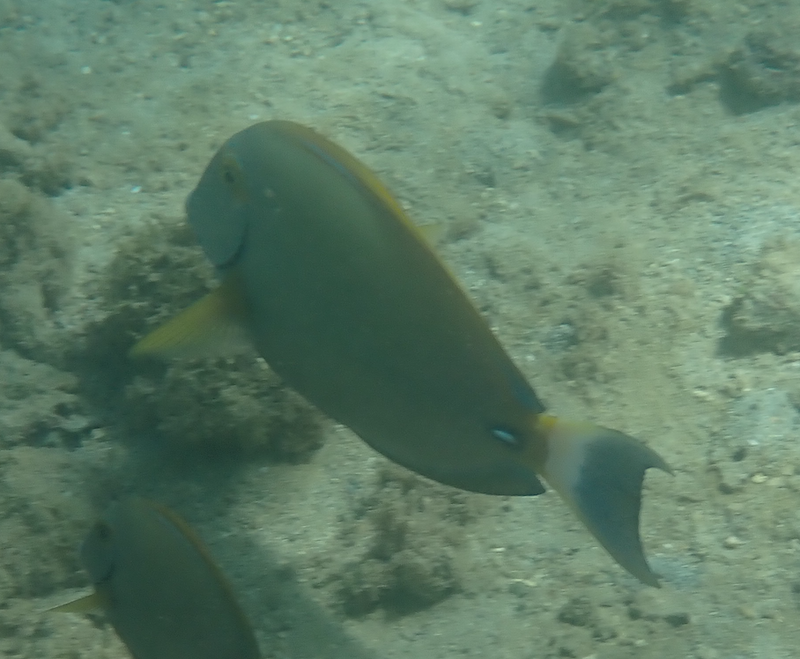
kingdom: Animalia
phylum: Chordata
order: Perciformes
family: Acanthuridae
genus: Acanthurus
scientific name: Acanthurus dussumieri
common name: Dussumier's surgeonfish
